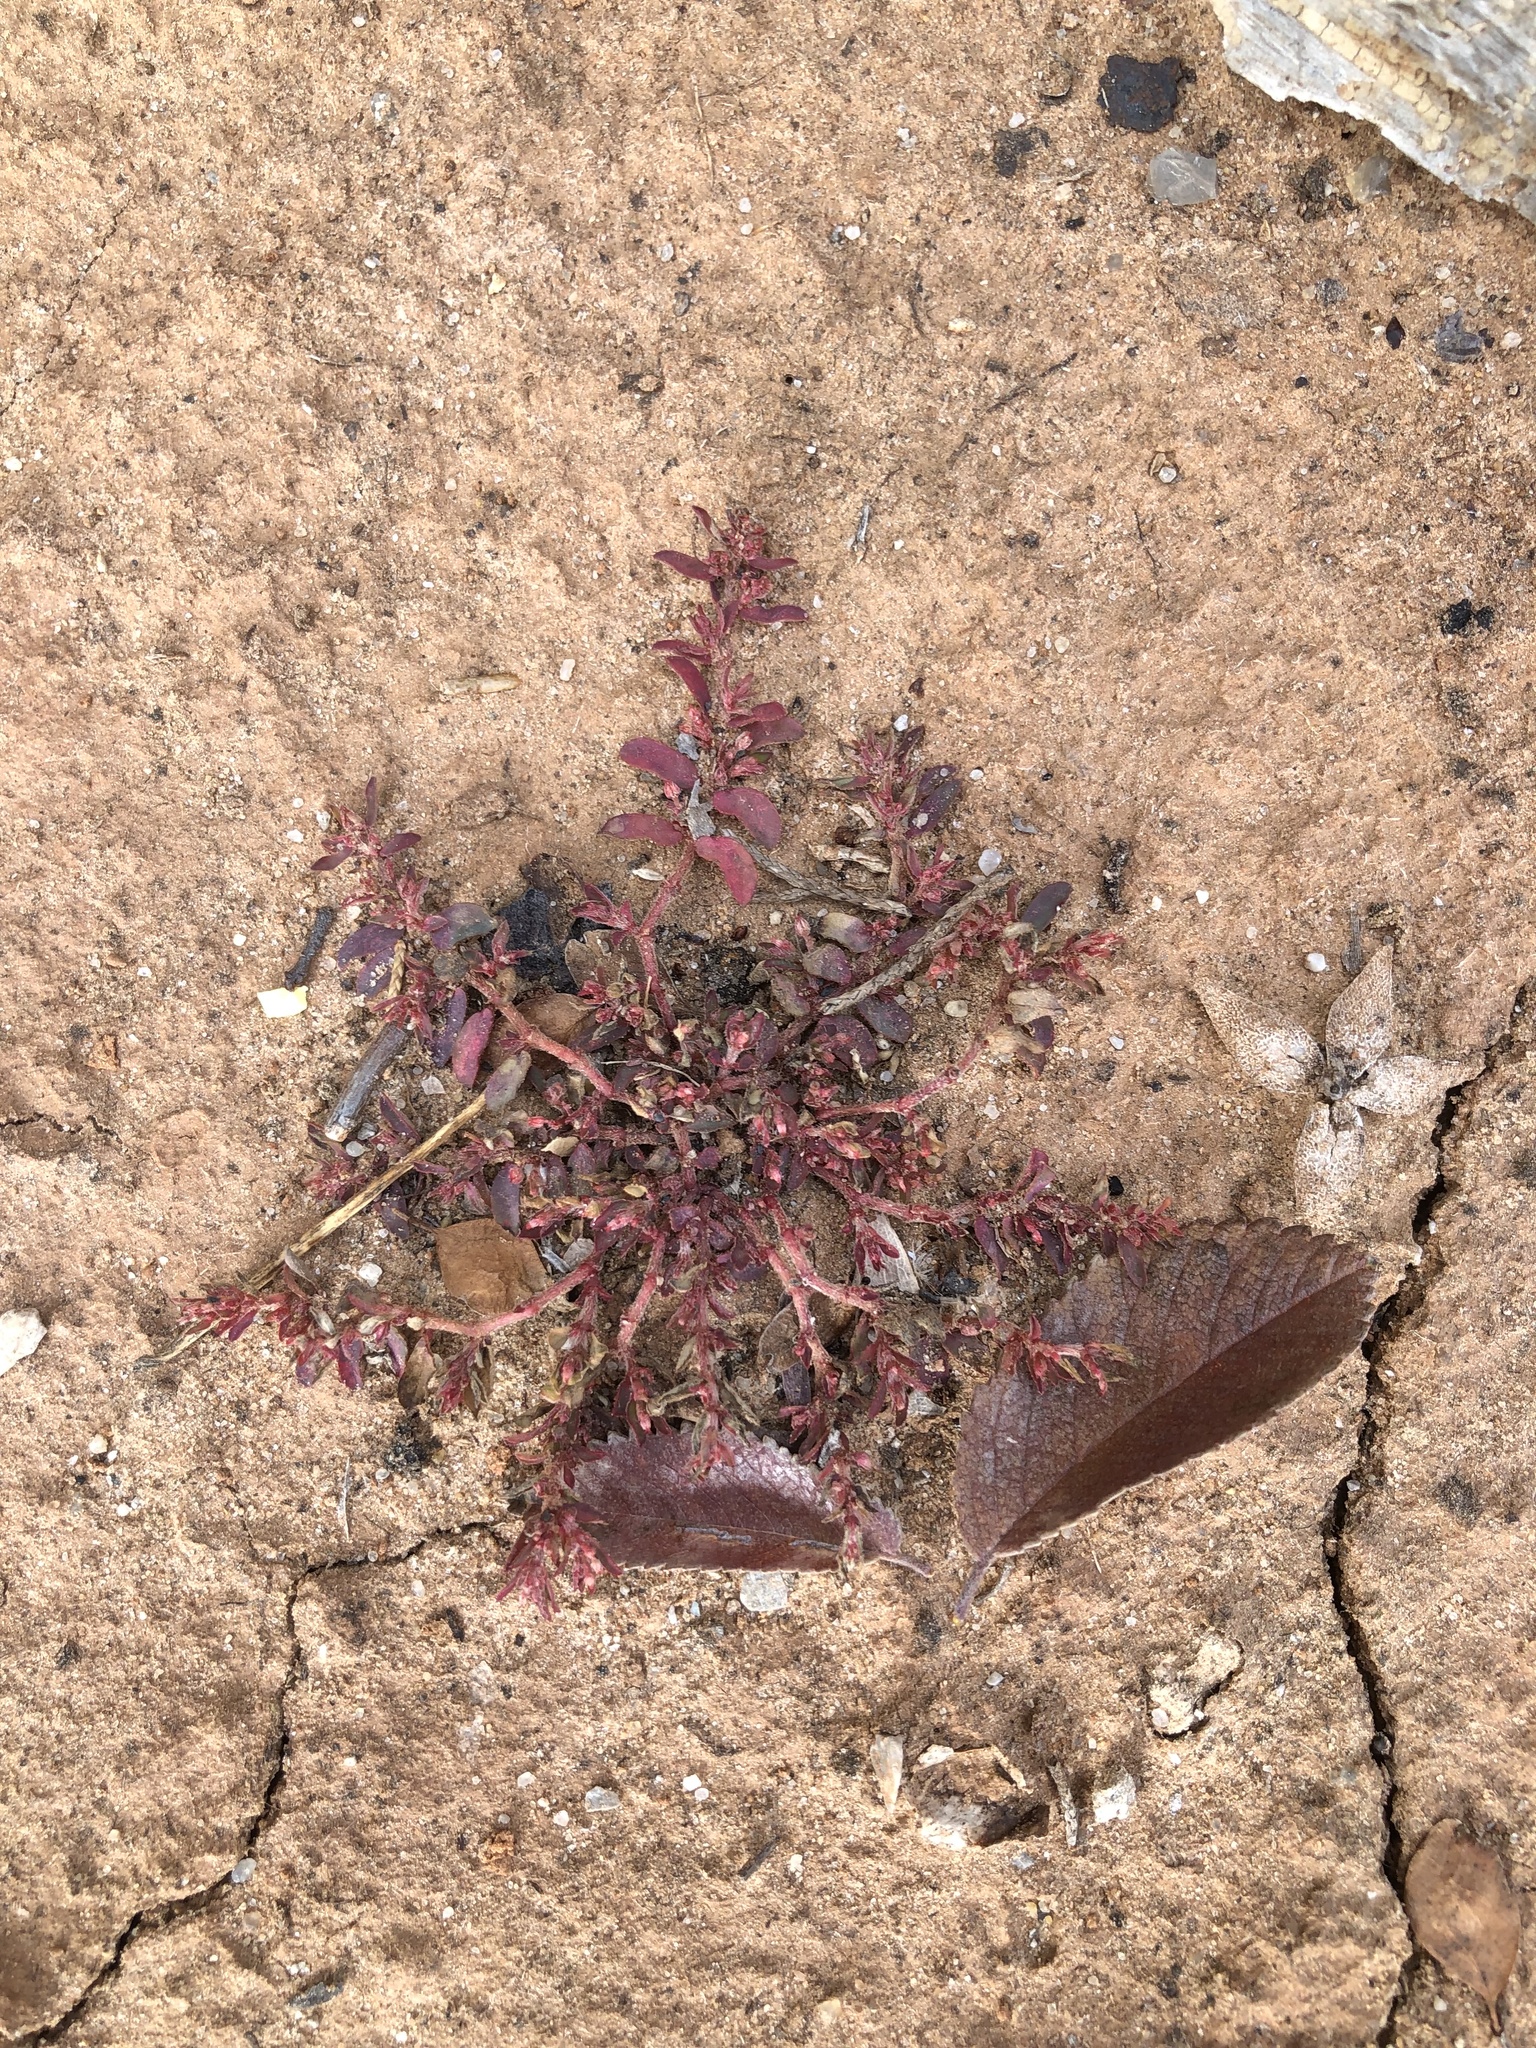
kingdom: Plantae
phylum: Tracheophyta
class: Magnoliopsida
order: Malpighiales
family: Euphorbiaceae
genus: Euphorbia
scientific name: Euphorbia maculata
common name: Spotted spurge
